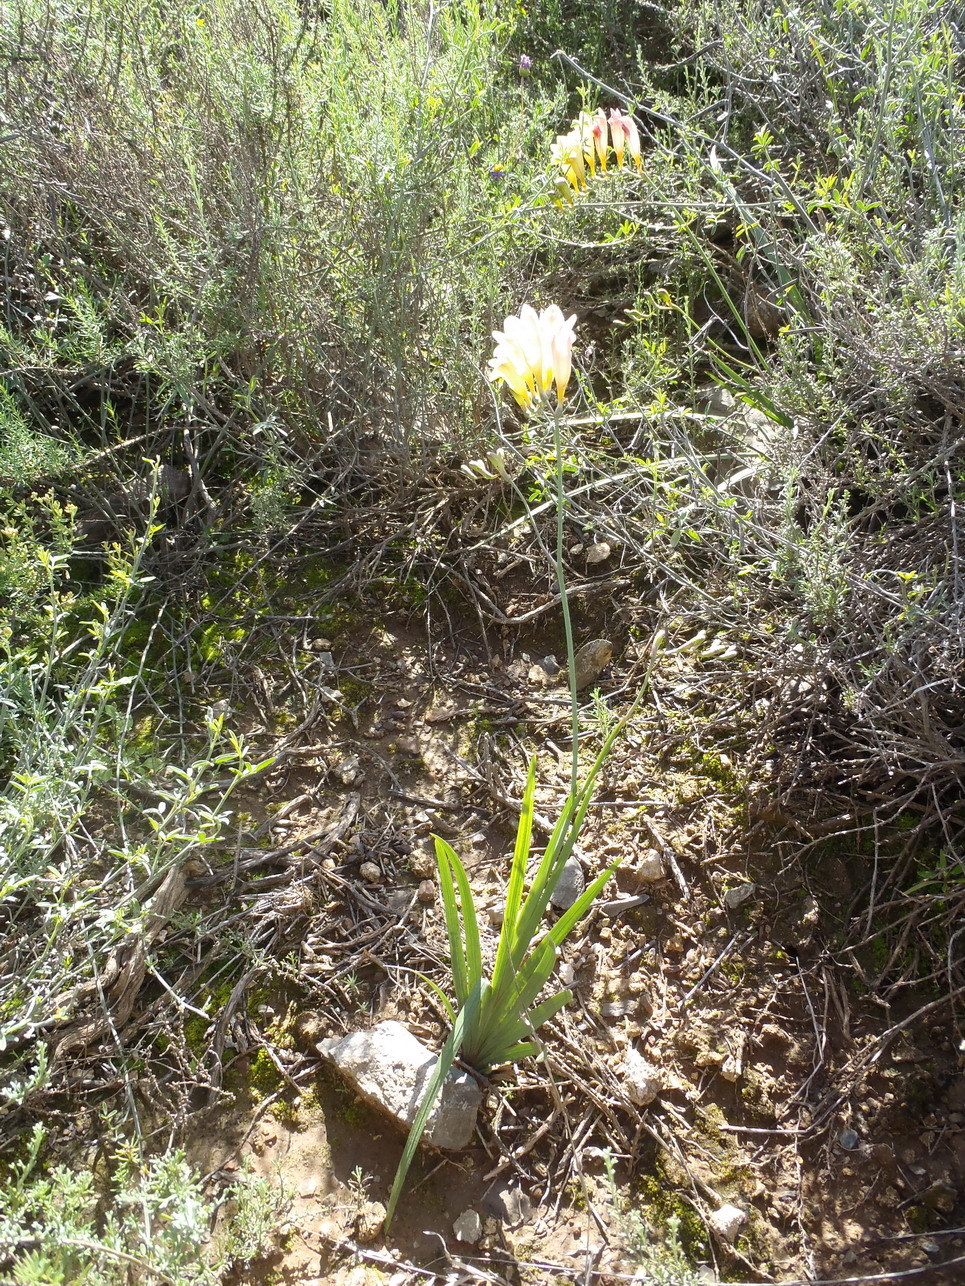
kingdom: Plantae
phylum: Tracheophyta
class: Liliopsida
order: Asparagales
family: Iridaceae
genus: Freesia
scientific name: Freesia corymbosa
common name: Common freesia
